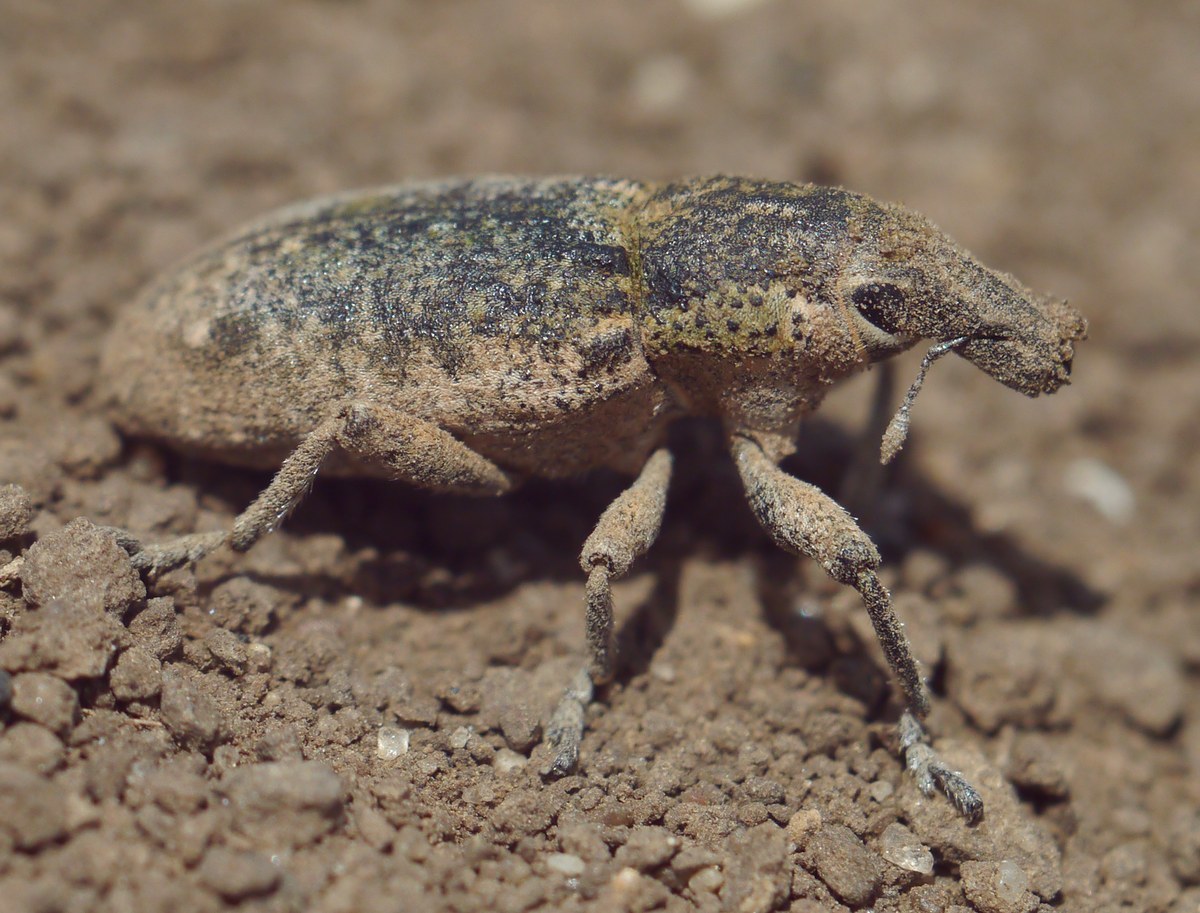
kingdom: Animalia
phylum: Arthropoda
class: Insecta
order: Coleoptera
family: Curculionidae
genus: Maximus
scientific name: Maximus strabus
